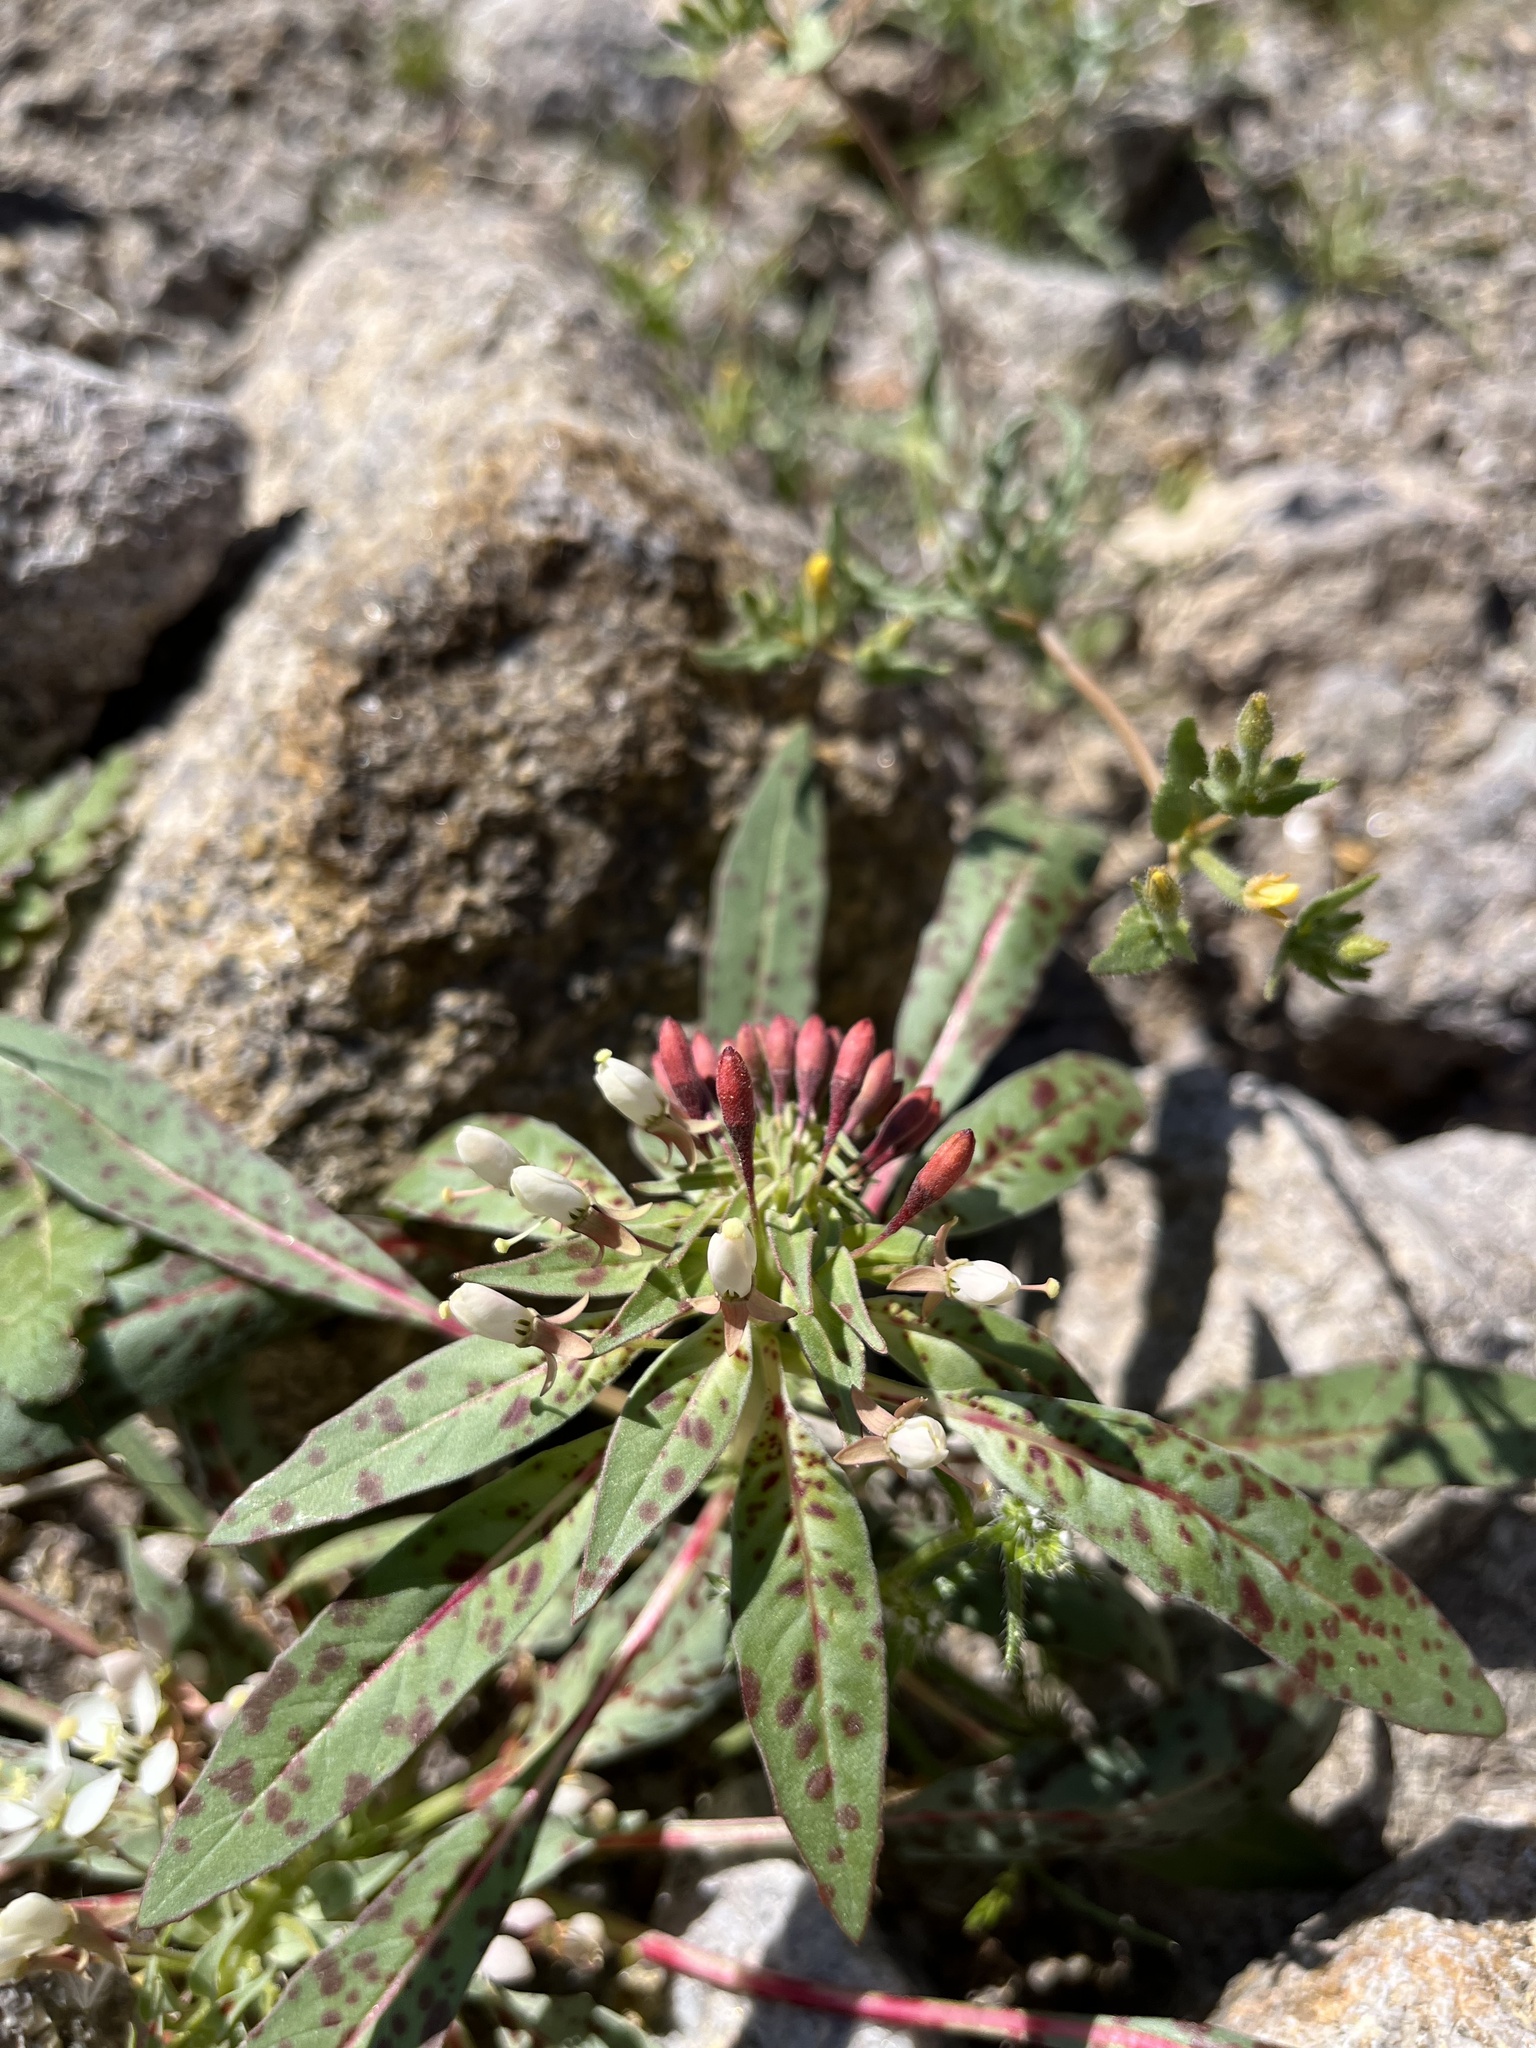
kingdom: Plantae
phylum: Tracheophyta
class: Magnoliopsida
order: Myrtales
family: Onagraceae
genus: Eremothera
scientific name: Eremothera boothii
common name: Booth's evening primrose
